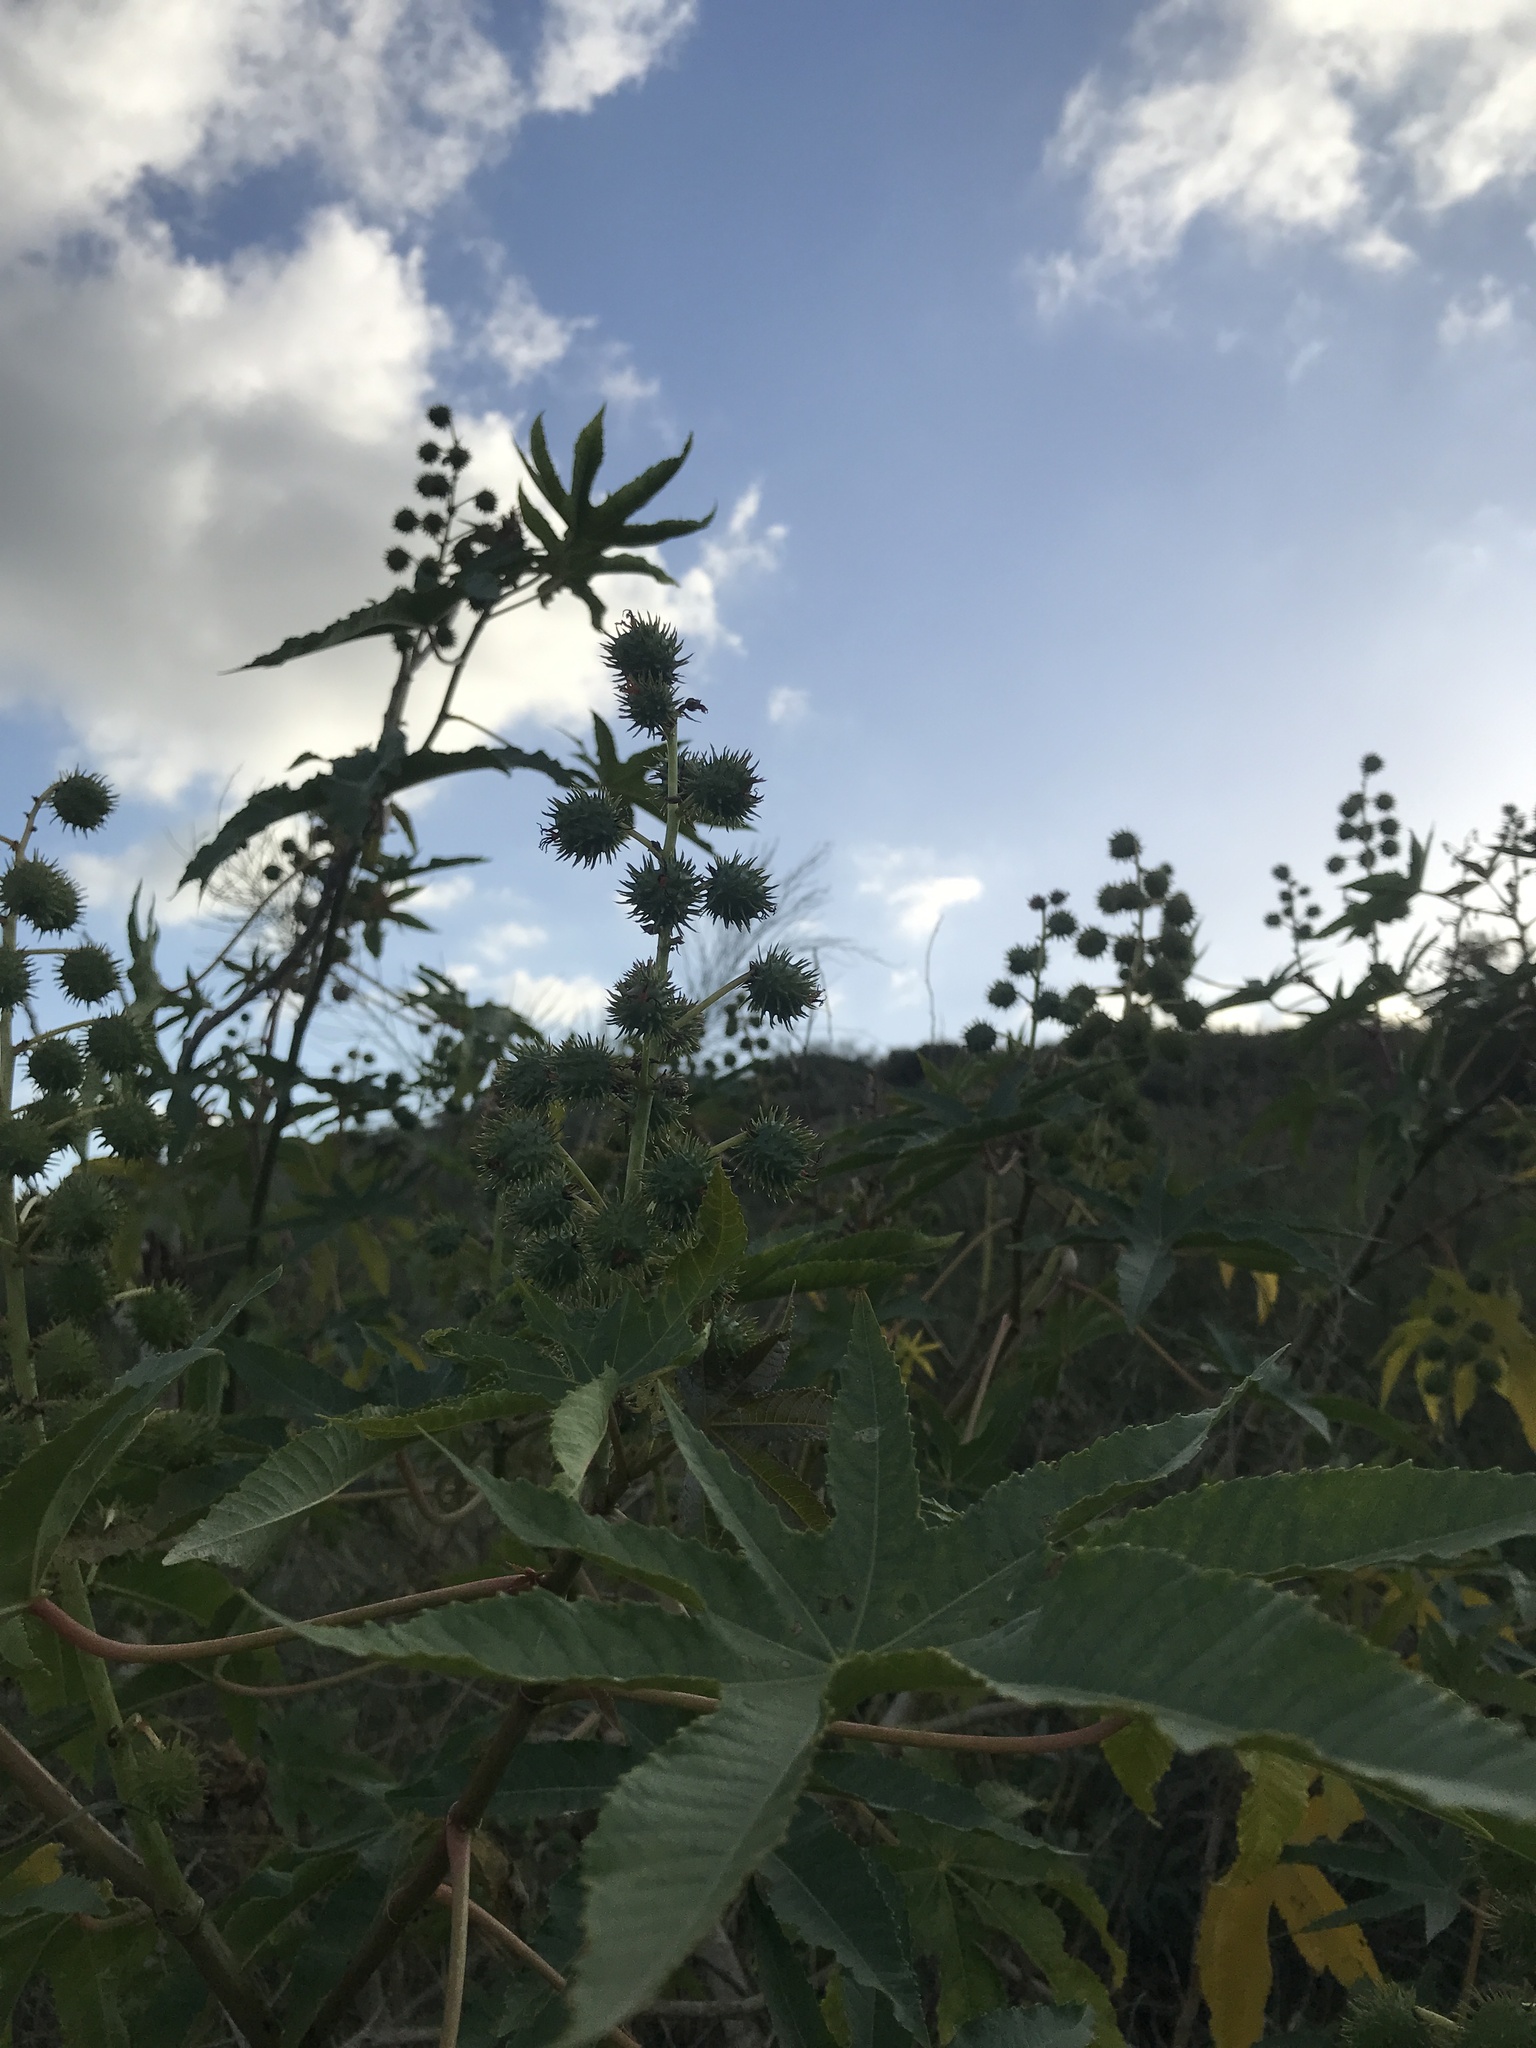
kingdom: Plantae
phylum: Tracheophyta
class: Magnoliopsida
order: Malpighiales
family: Euphorbiaceae
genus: Ricinus
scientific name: Ricinus communis
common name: Castor-oil-plant
